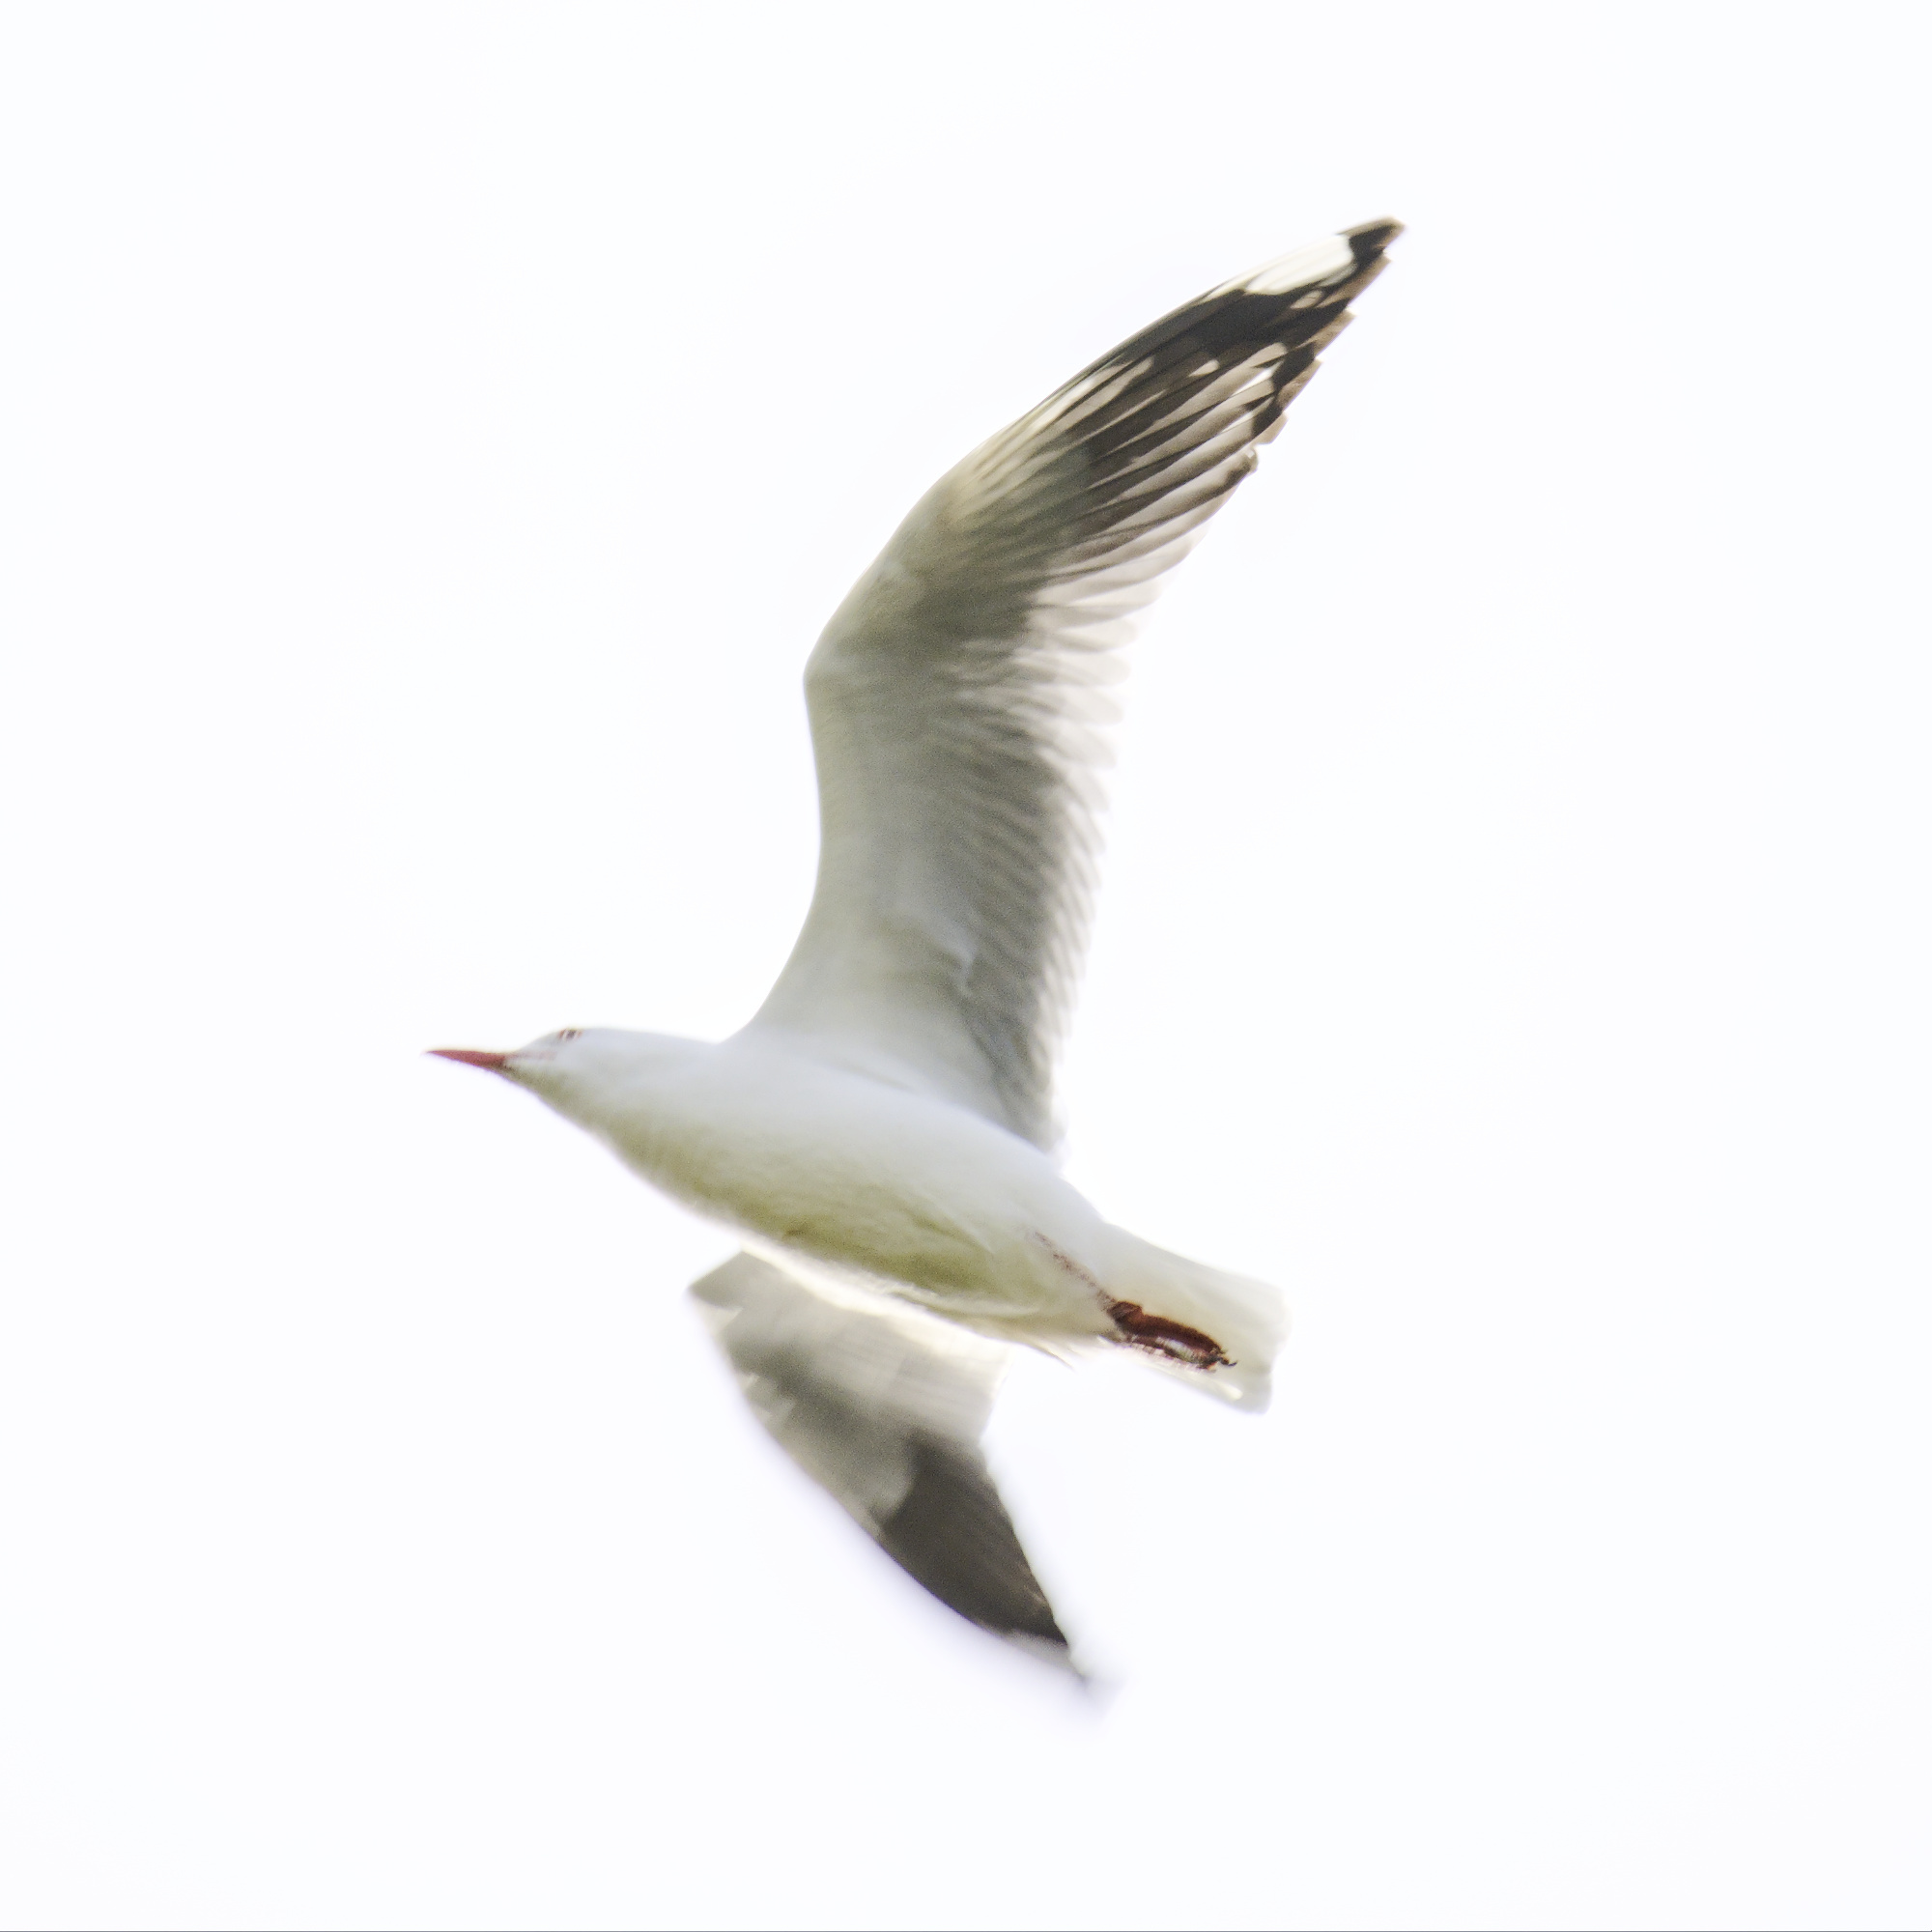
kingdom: Animalia
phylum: Chordata
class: Aves
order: Charadriiformes
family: Laridae
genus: Chroicocephalus
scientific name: Chroicocephalus novaehollandiae
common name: Silver gull
